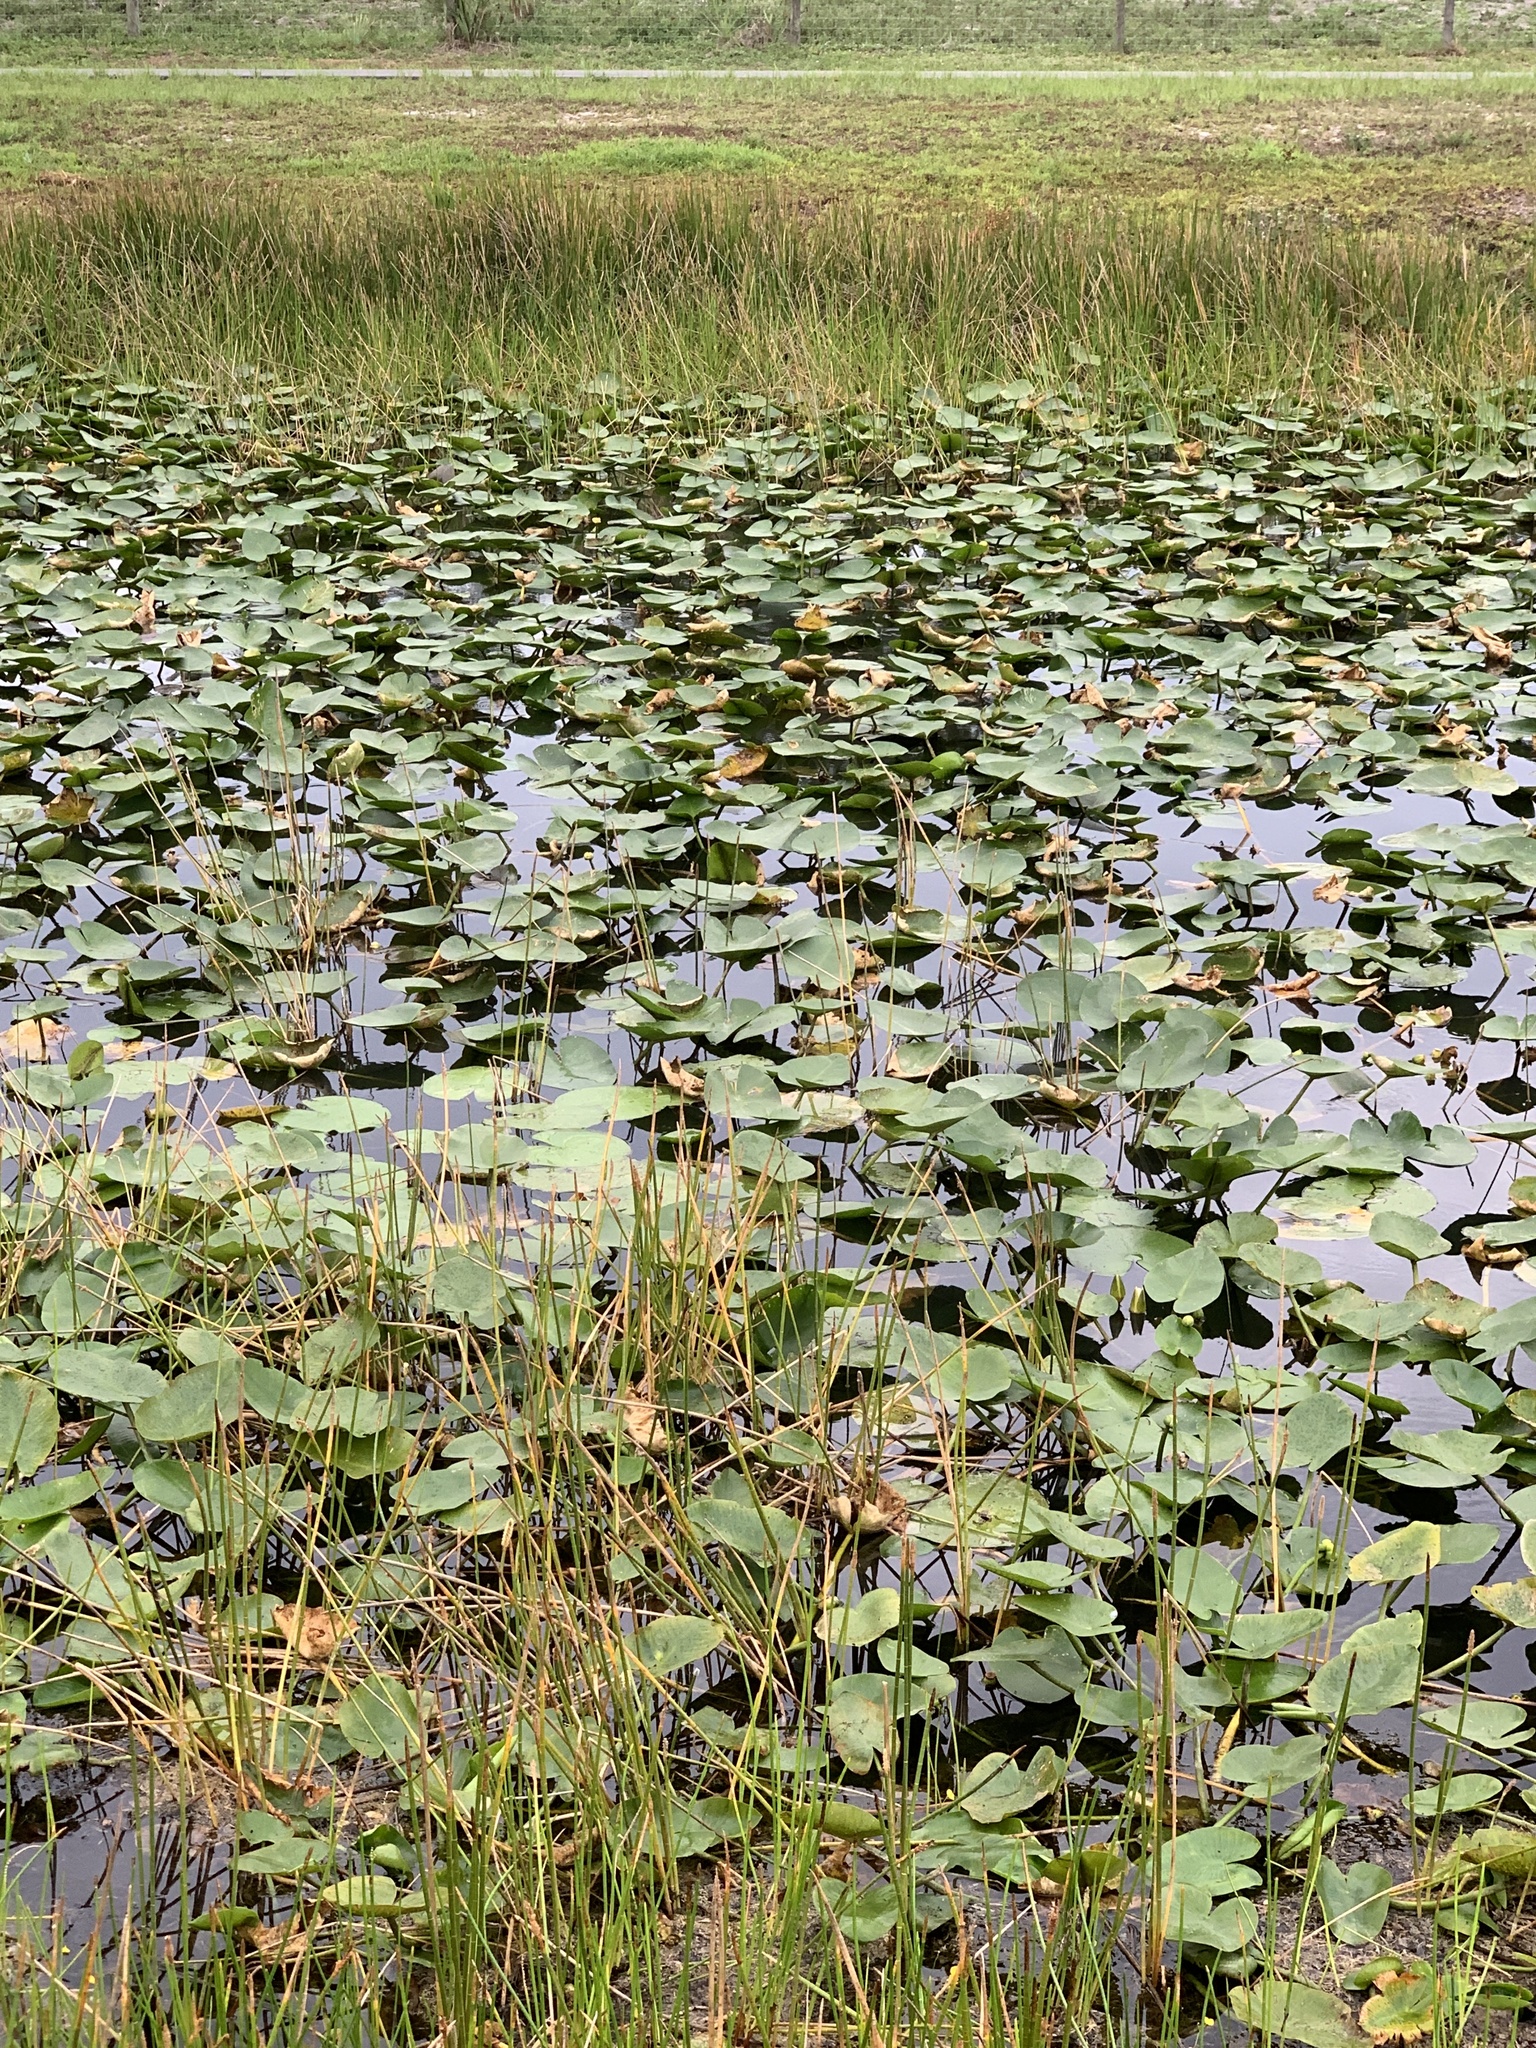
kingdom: Plantae
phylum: Tracheophyta
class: Magnoliopsida
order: Nymphaeales
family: Nymphaeaceae
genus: Nuphar
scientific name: Nuphar advena
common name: Spatter-dock
